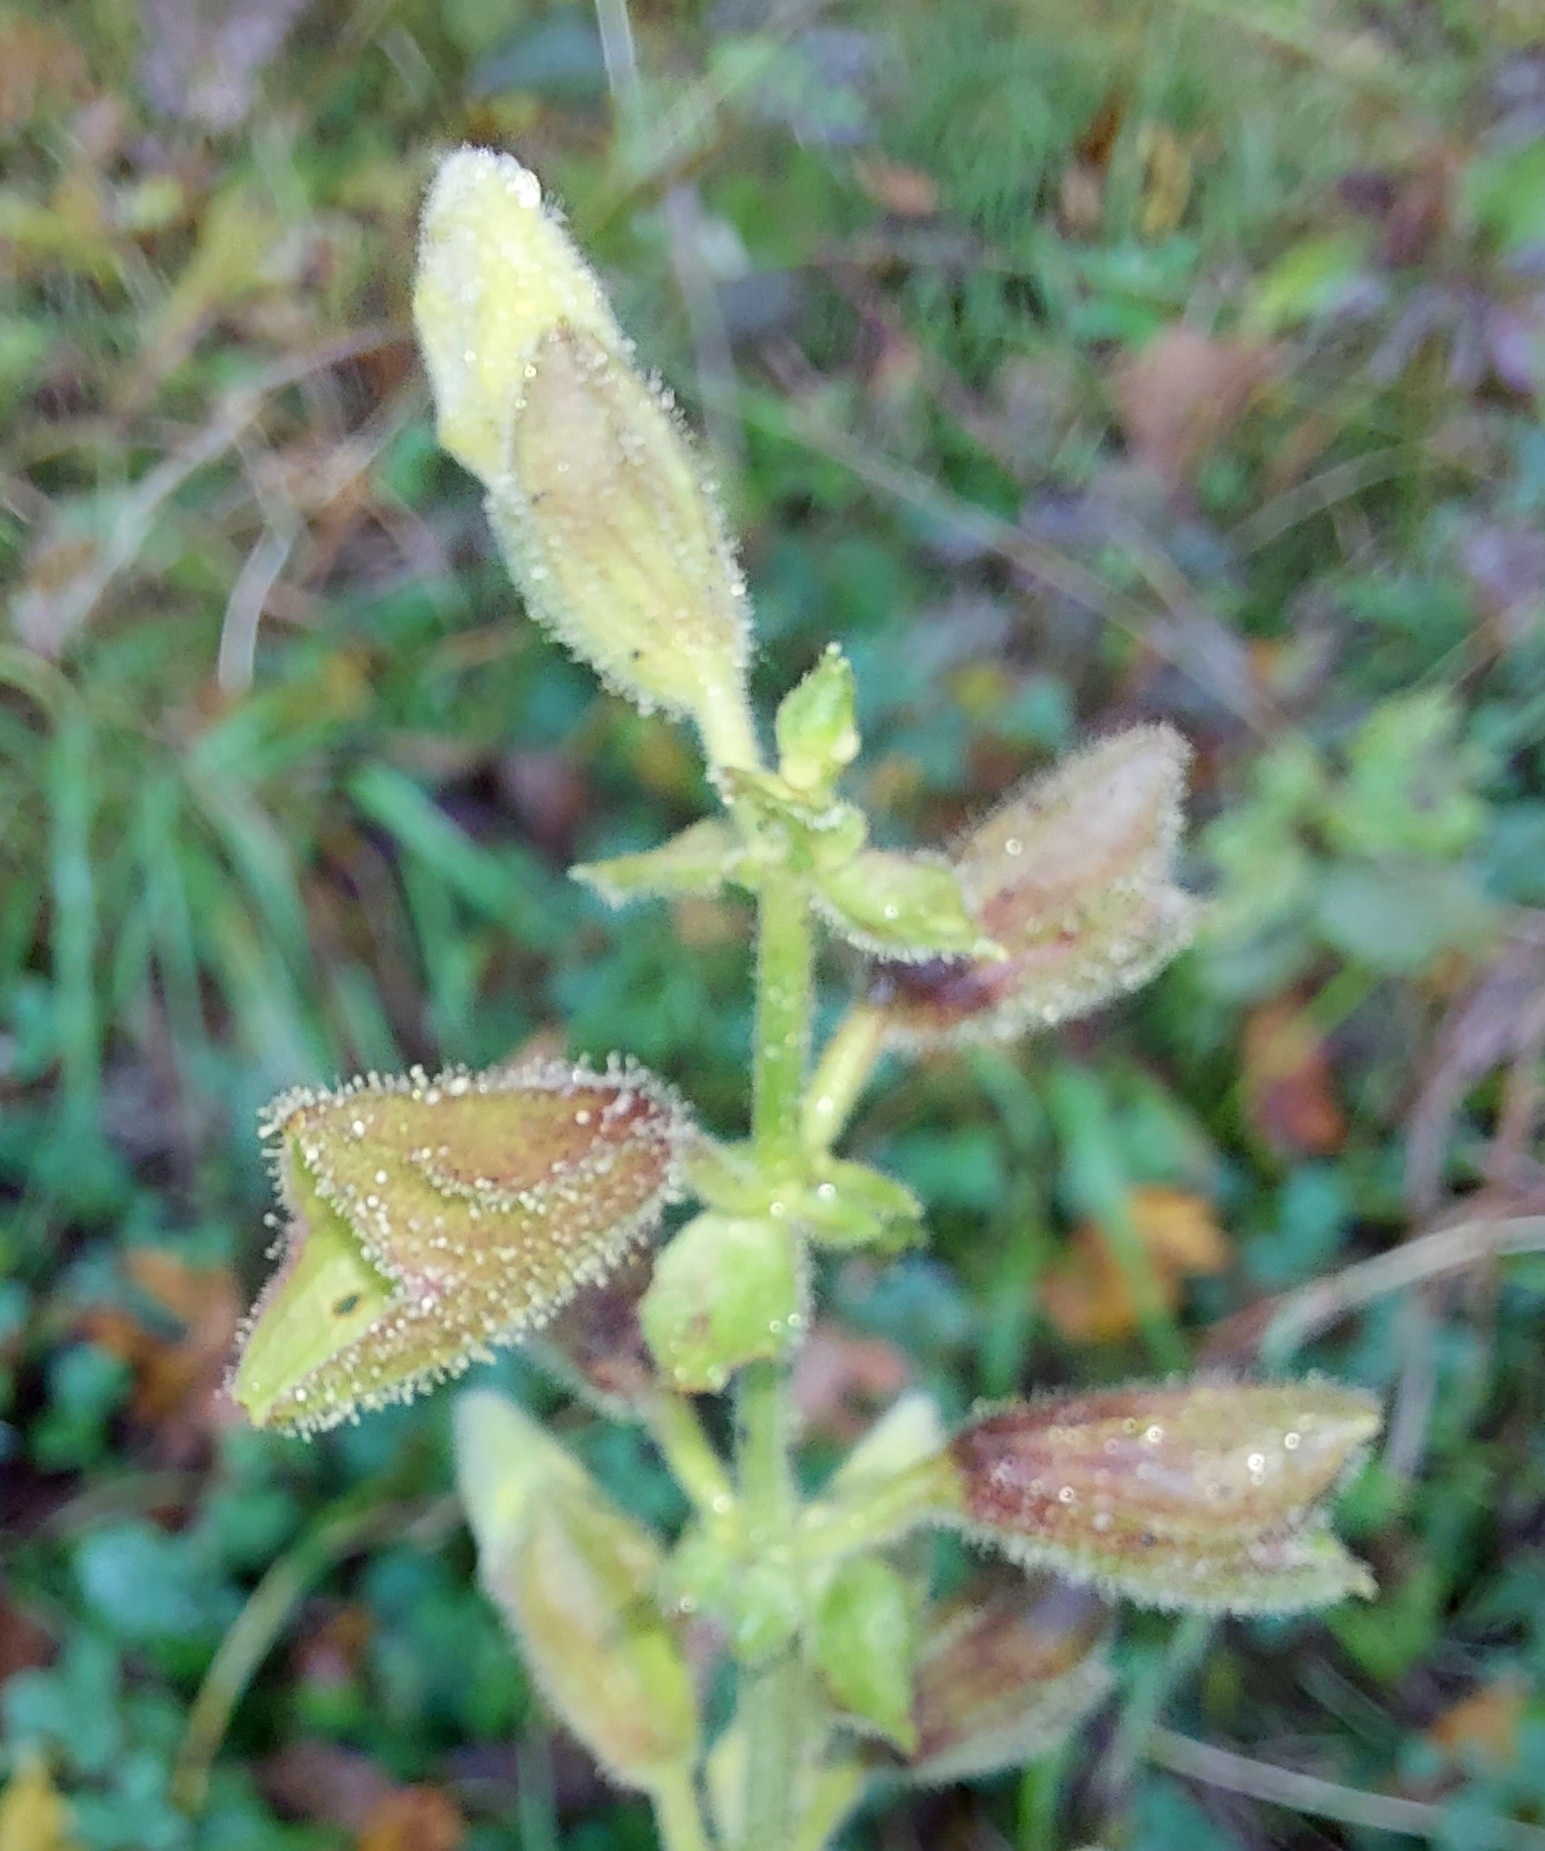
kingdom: Plantae
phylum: Tracheophyta
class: Magnoliopsida
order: Lamiales
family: Lamiaceae
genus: Salvia
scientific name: Salvia glutinosa
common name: Sticky clary
